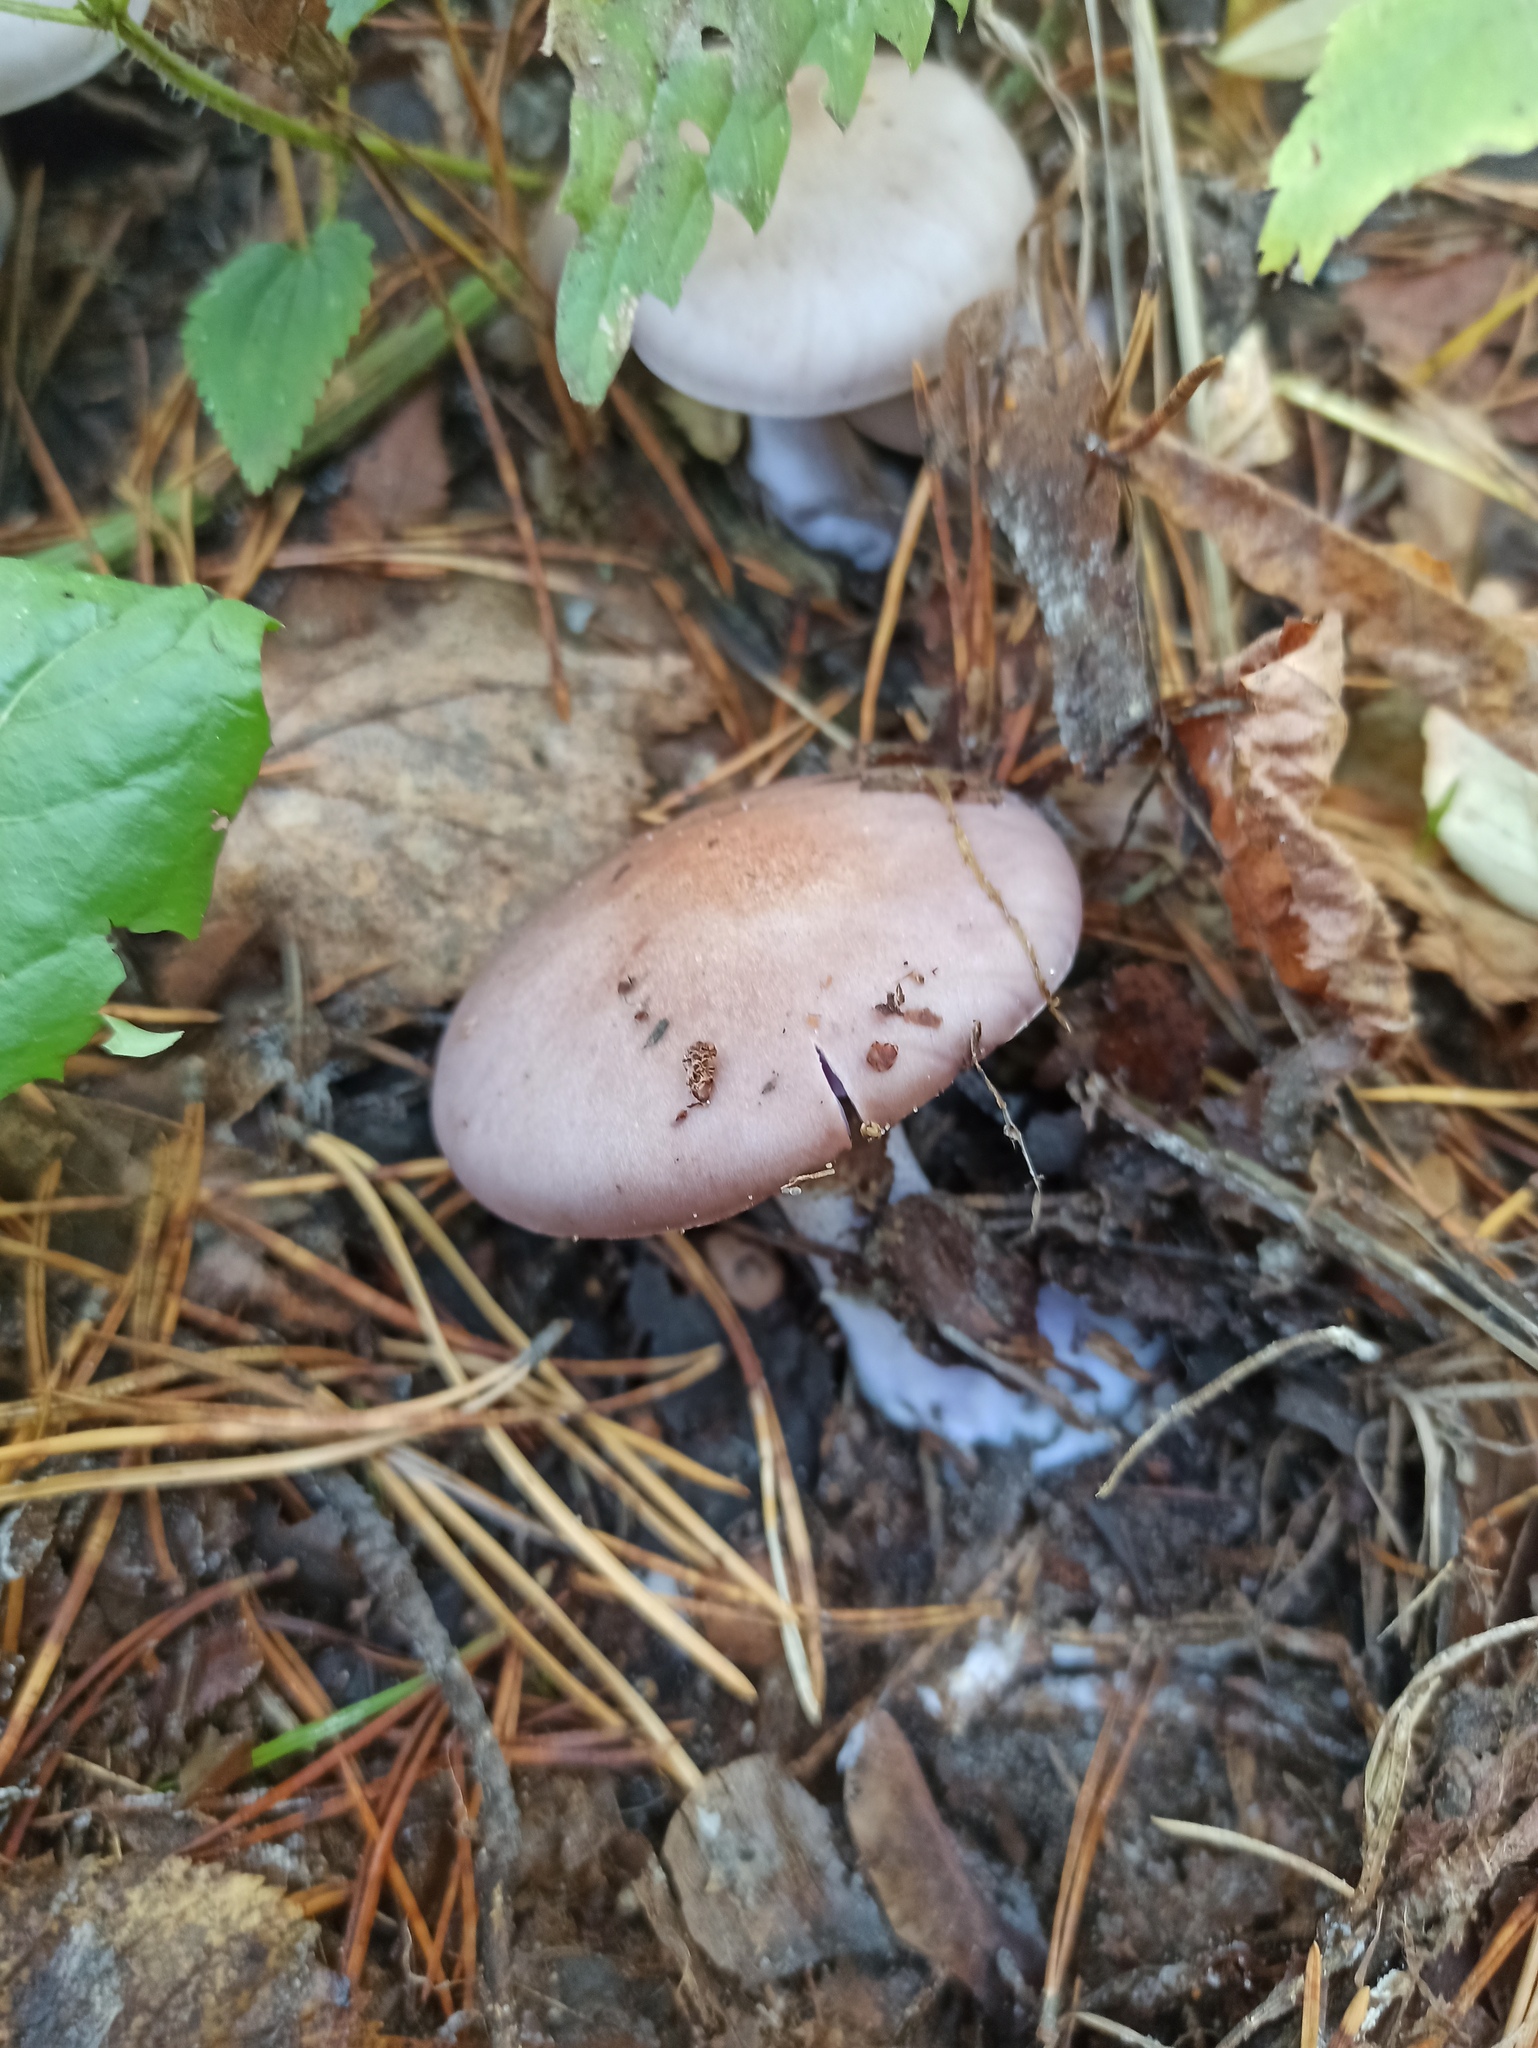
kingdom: Fungi
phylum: Basidiomycota
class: Agaricomycetes
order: Agaricales
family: Tricholomataceae
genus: Collybia
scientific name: Collybia
